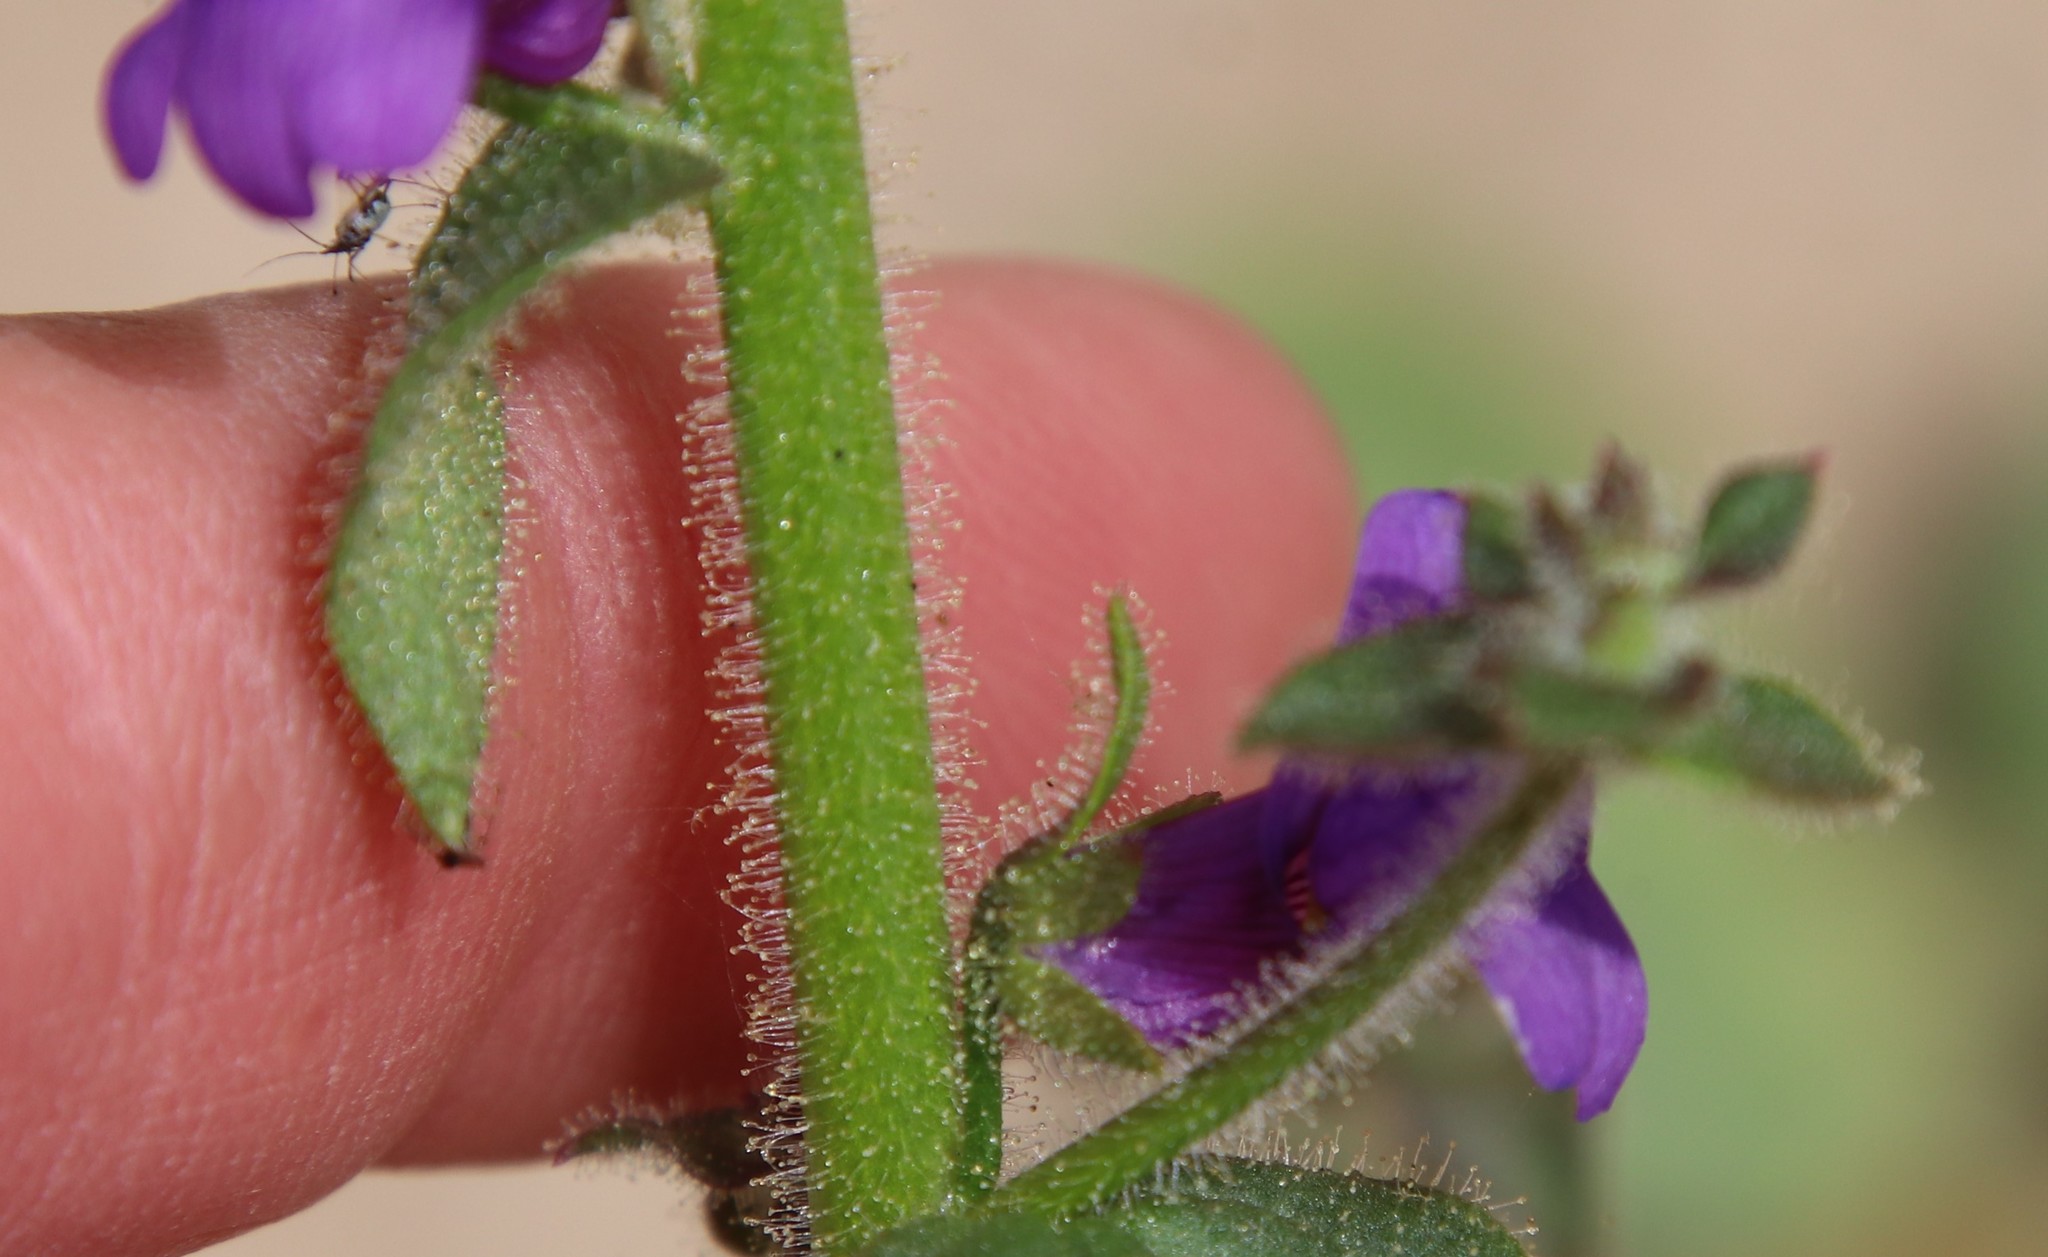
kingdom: Plantae
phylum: Tracheophyta
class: Magnoliopsida
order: Lamiales
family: Plantaginaceae
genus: Sairocarpus
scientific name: Sairocarpus nuttallianus
